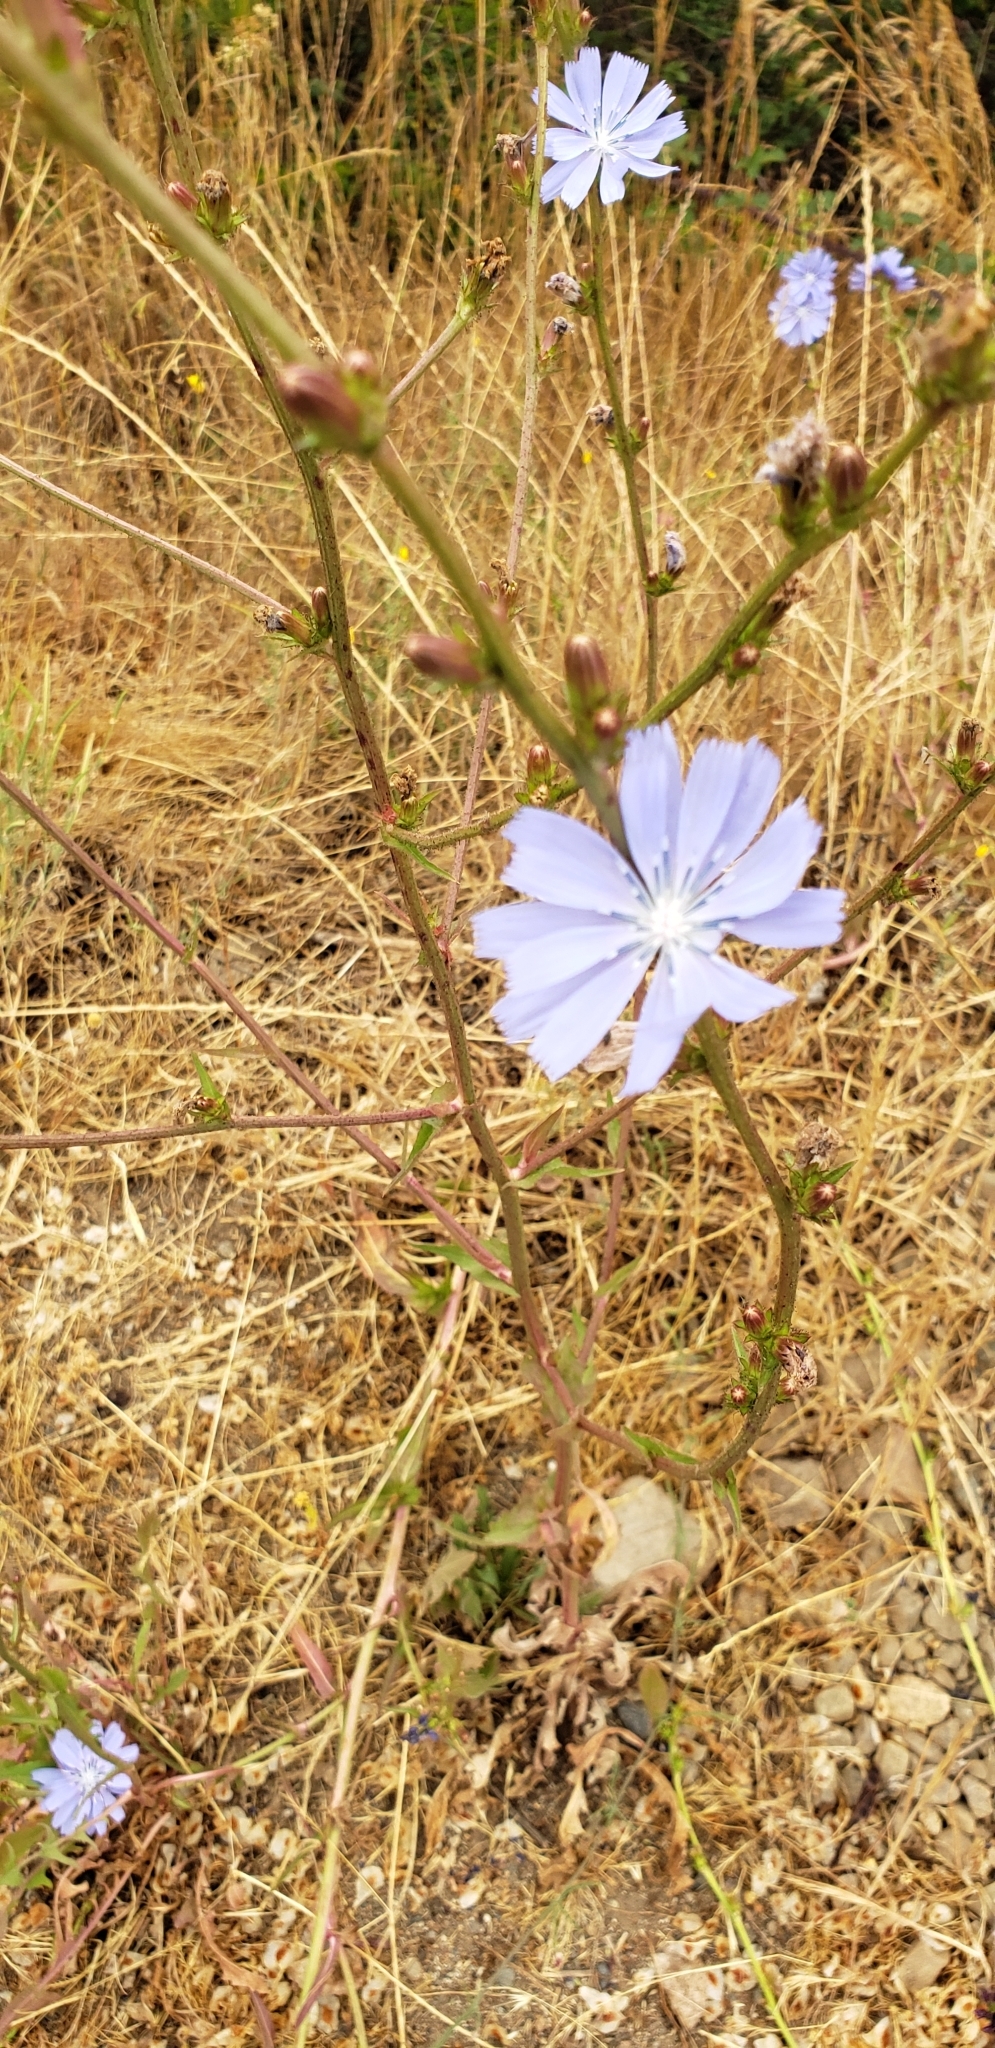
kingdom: Plantae
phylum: Tracheophyta
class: Magnoliopsida
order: Asterales
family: Asteraceae
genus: Cichorium
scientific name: Cichorium intybus
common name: Chicory
